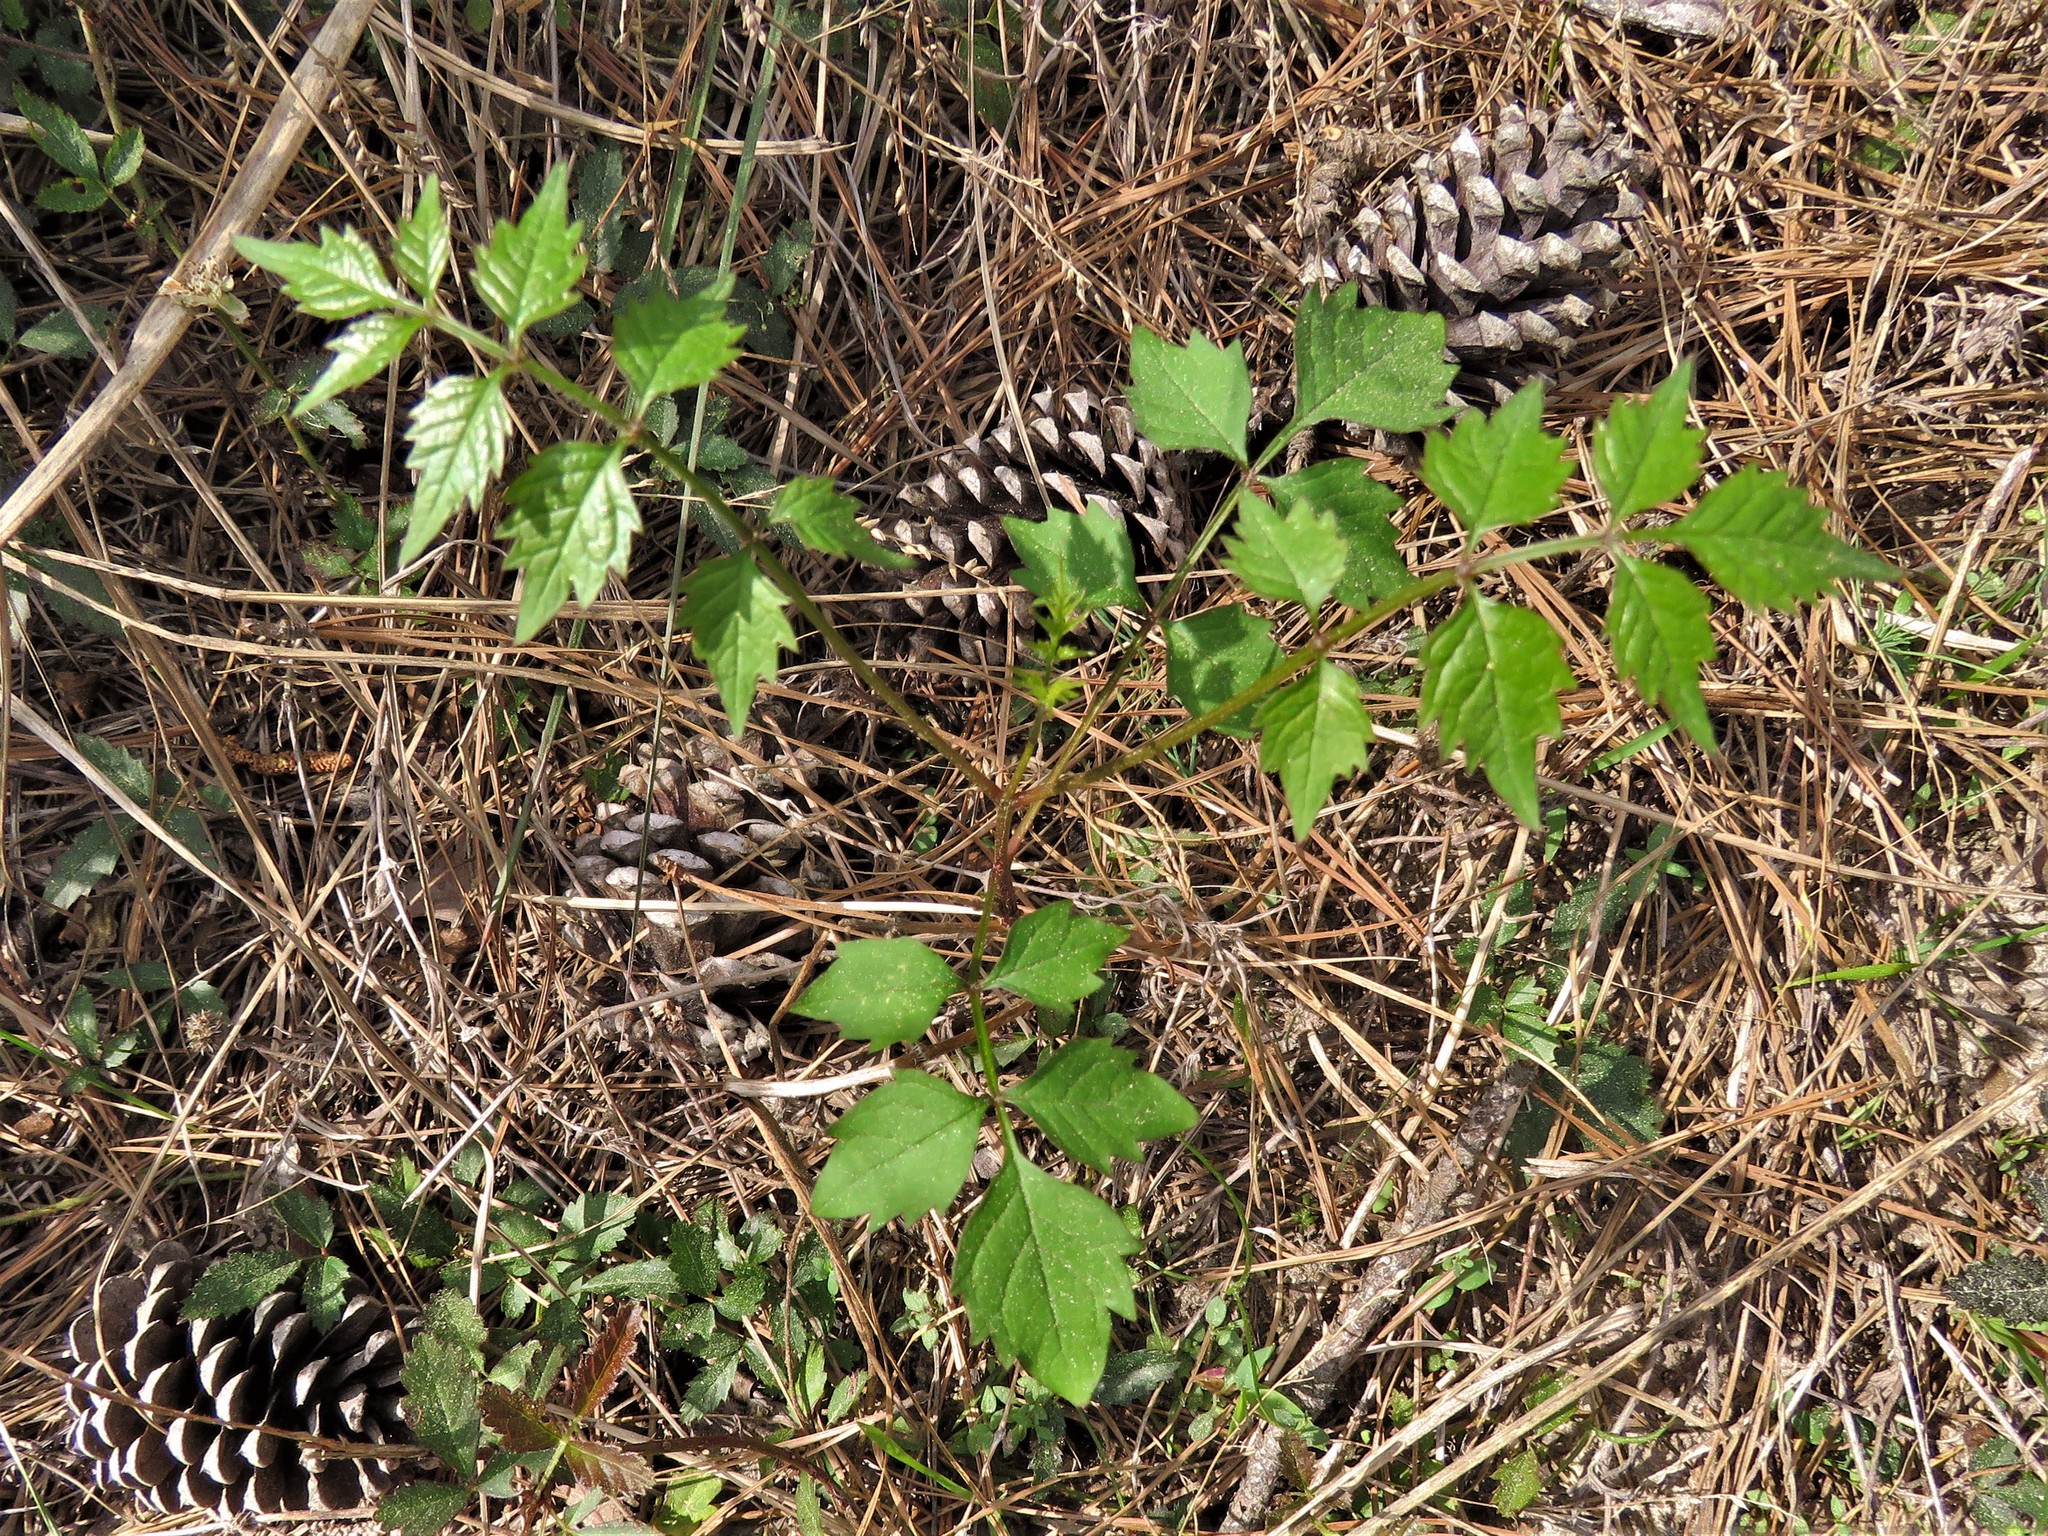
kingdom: Plantae
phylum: Tracheophyta
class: Magnoliopsida
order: Lamiales
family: Bignoniaceae
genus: Campsis
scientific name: Campsis radicans
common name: Trumpet-creeper
